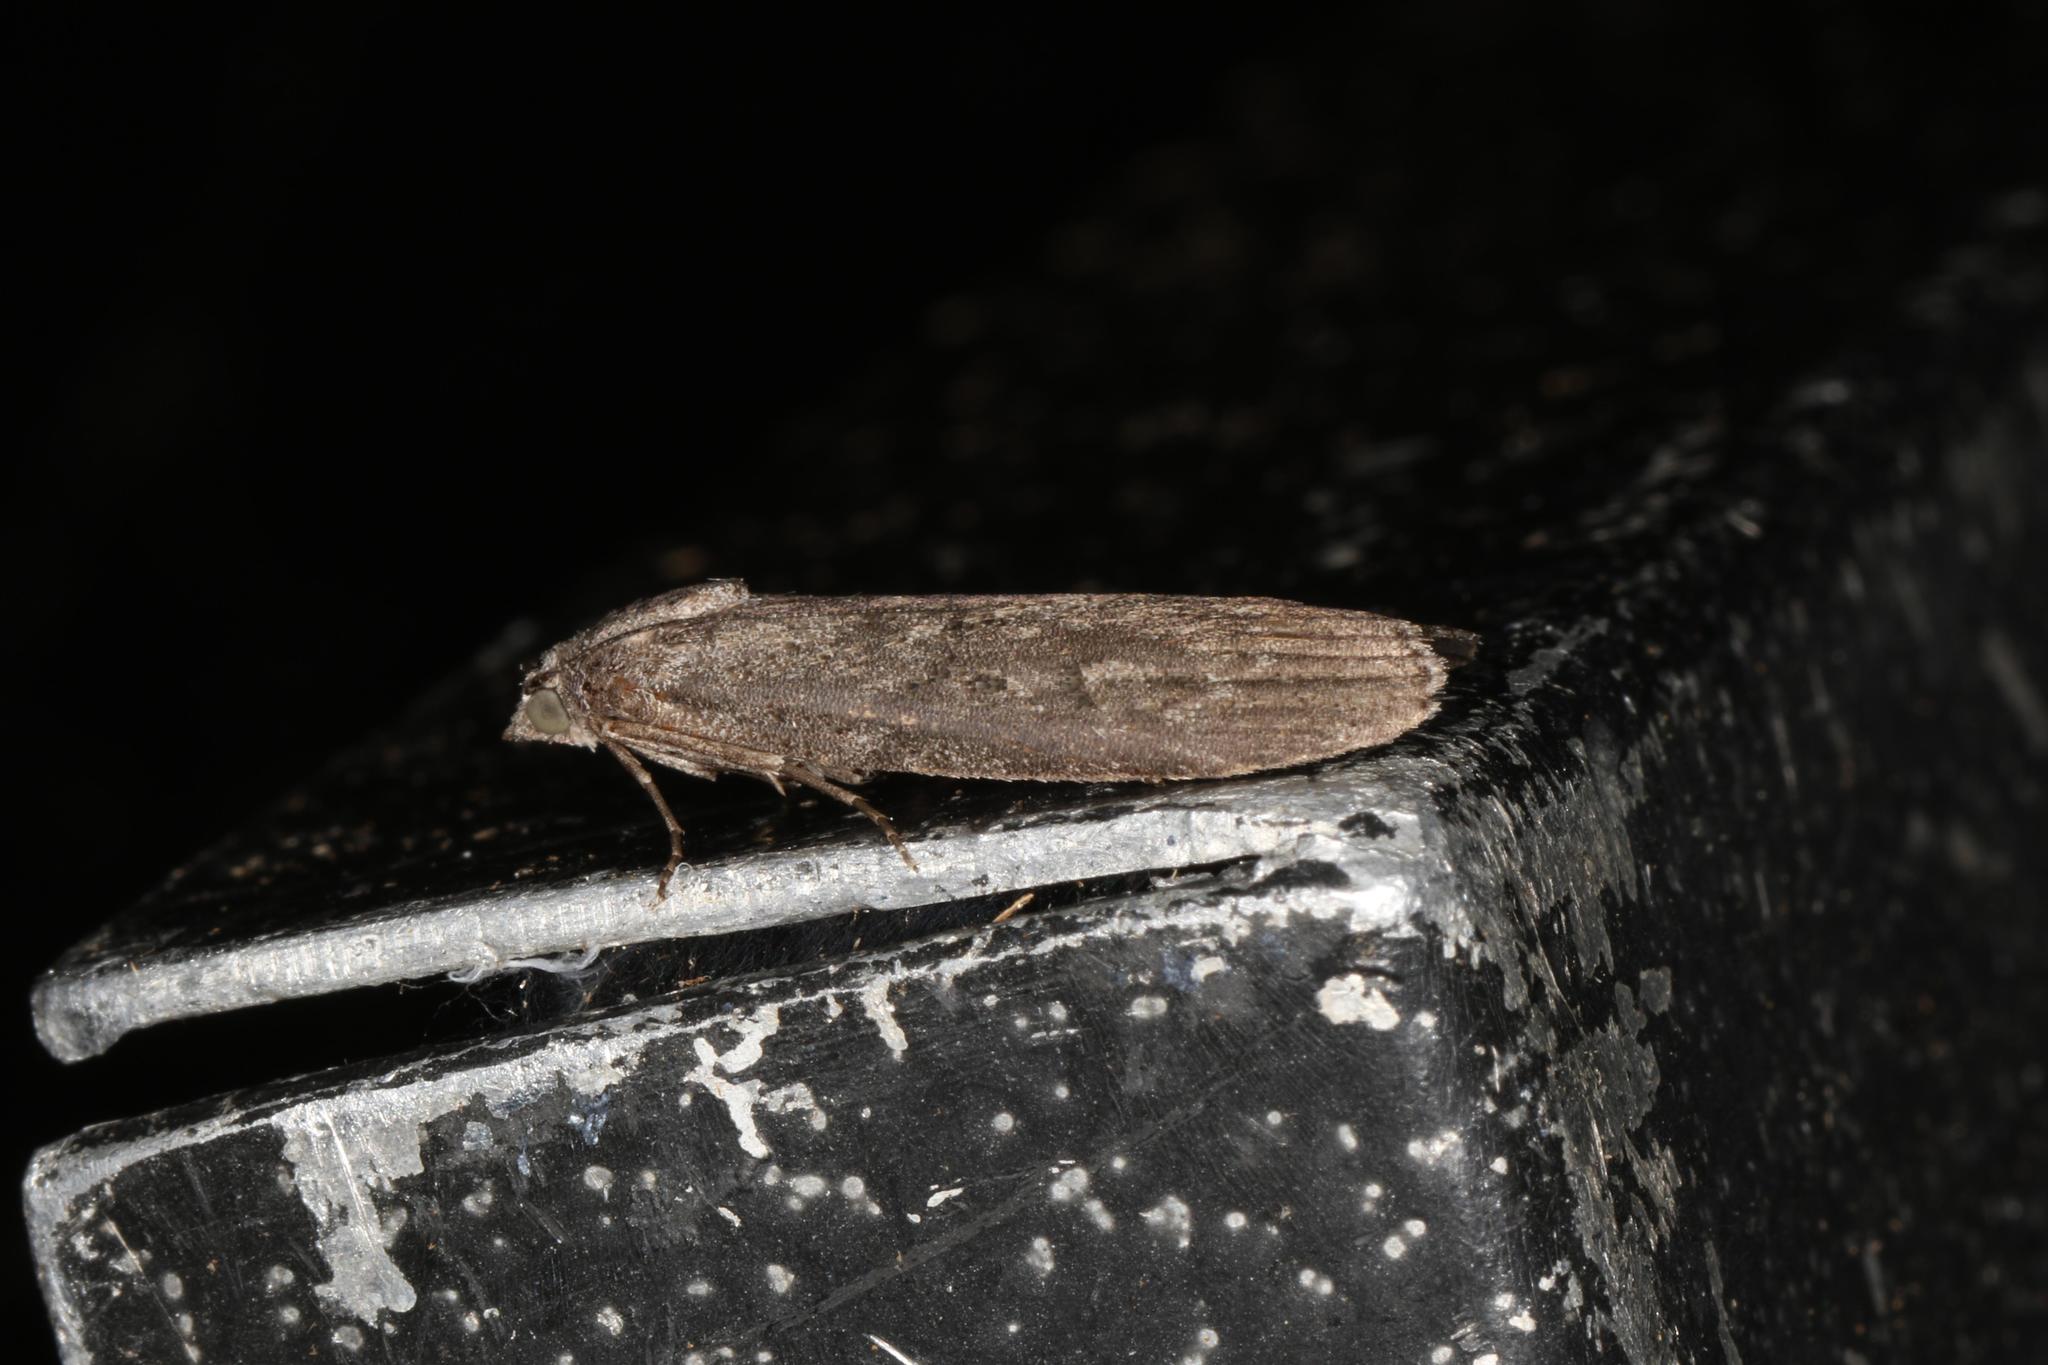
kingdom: Animalia
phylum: Arthropoda
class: Insecta
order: Lepidoptera
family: Pyralidae
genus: Heteromicta
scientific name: Heteromicta pachytera
